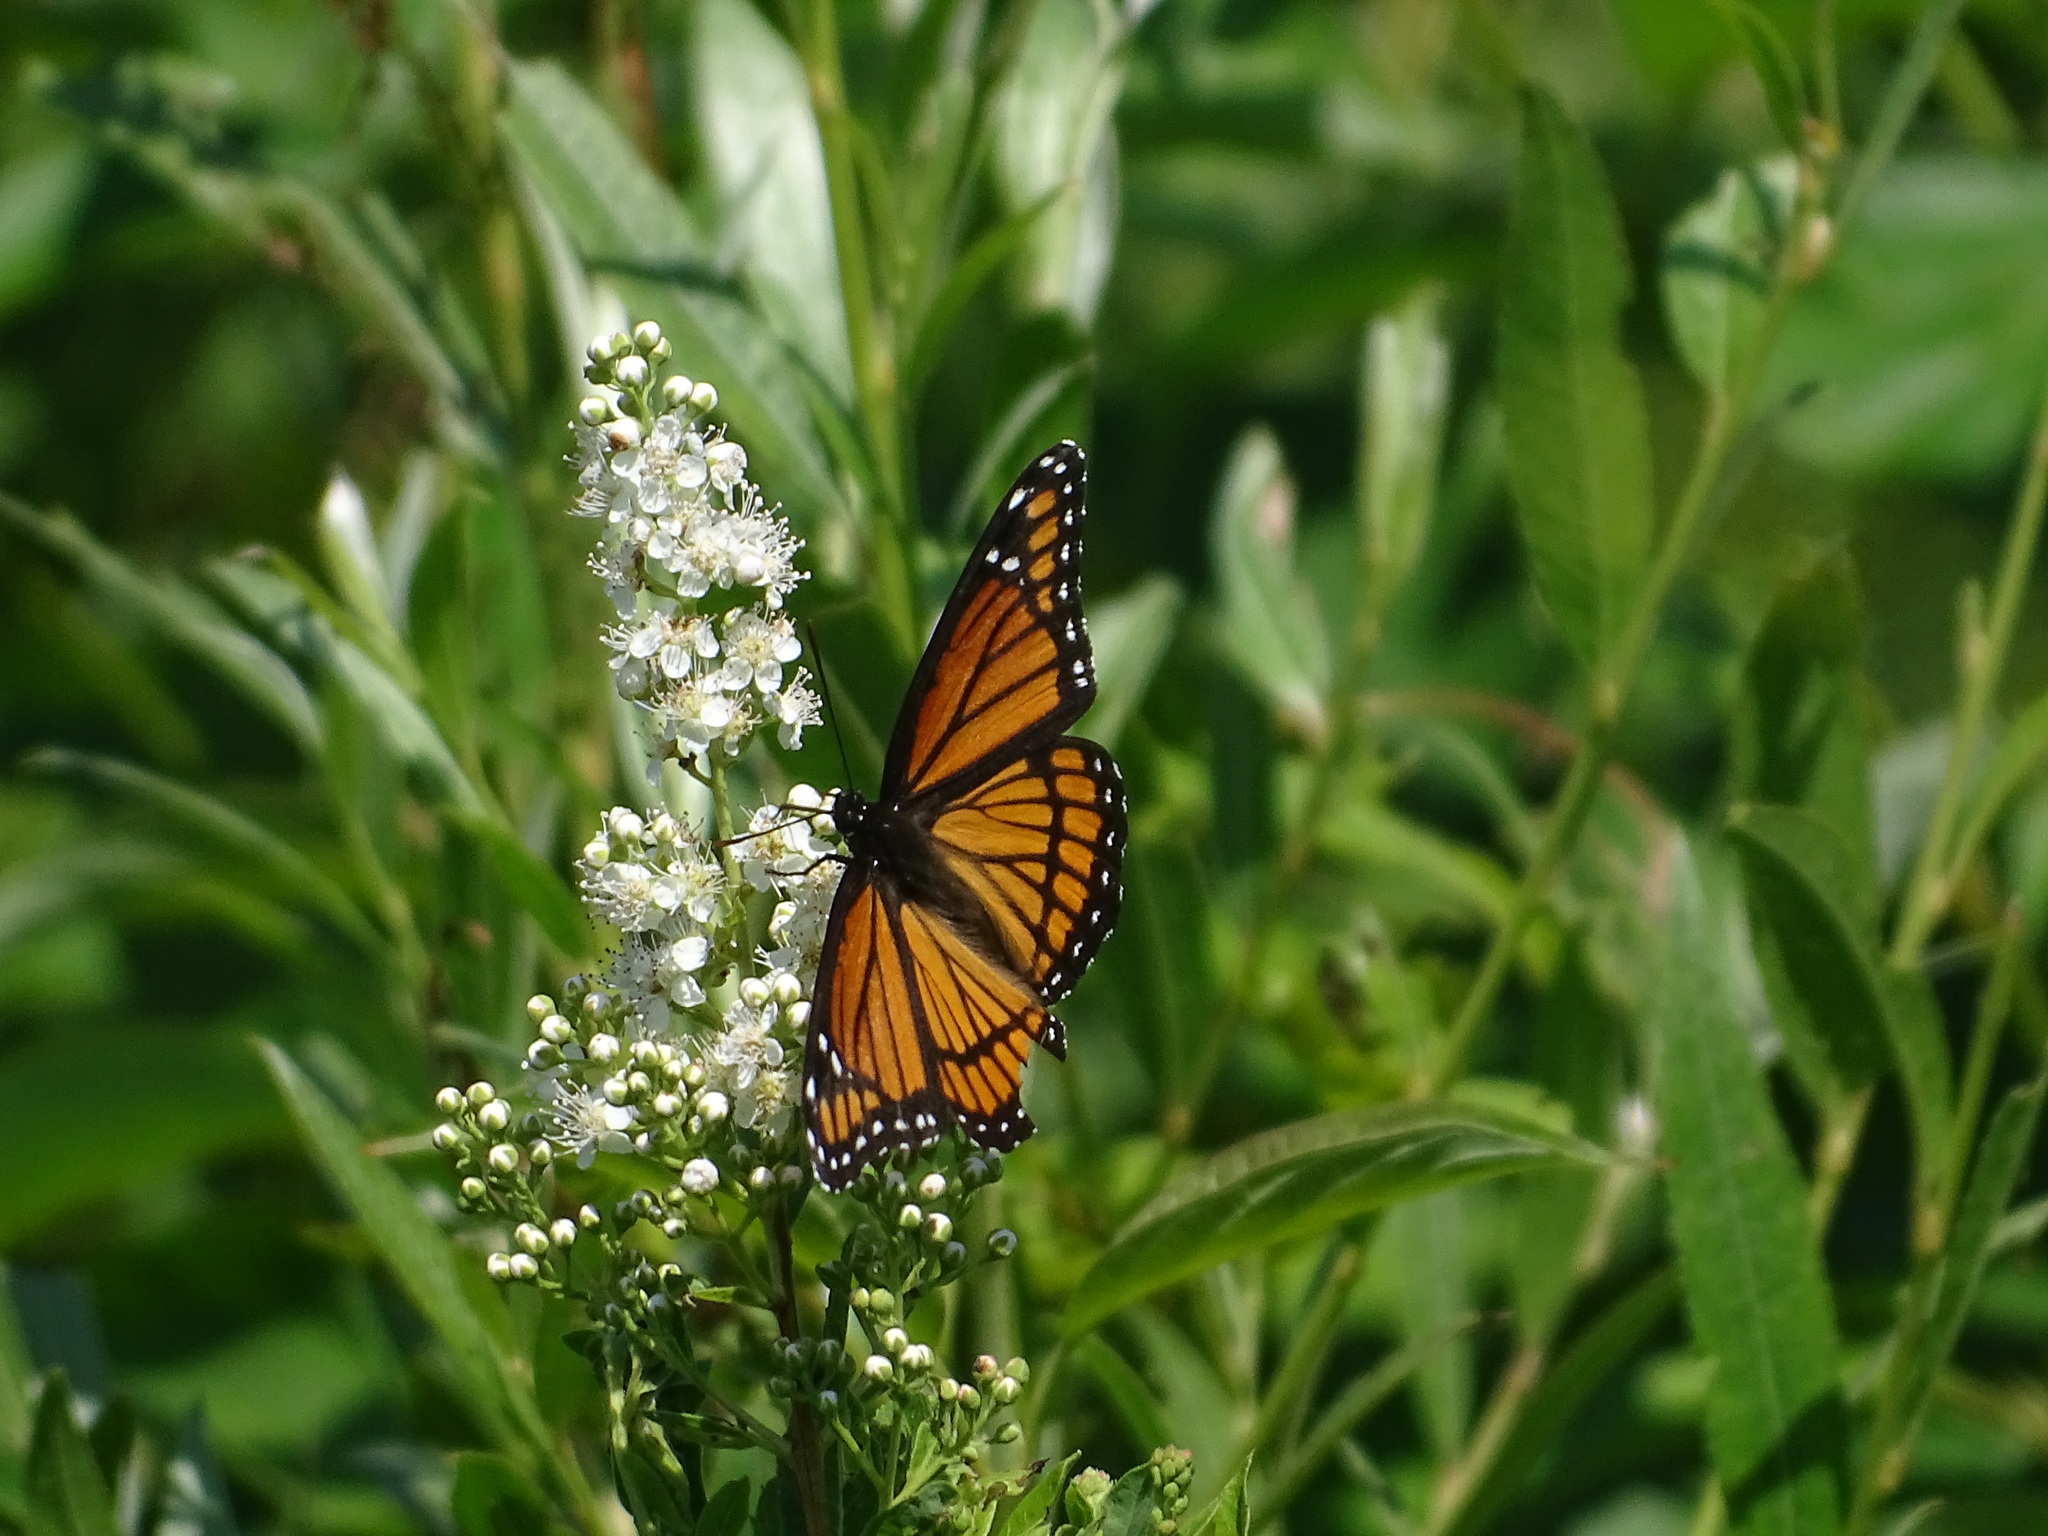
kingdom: Animalia
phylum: Arthropoda
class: Insecta
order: Lepidoptera
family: Nymphalidae
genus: Limenitis
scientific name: Limenitis archippus
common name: Viceroy
